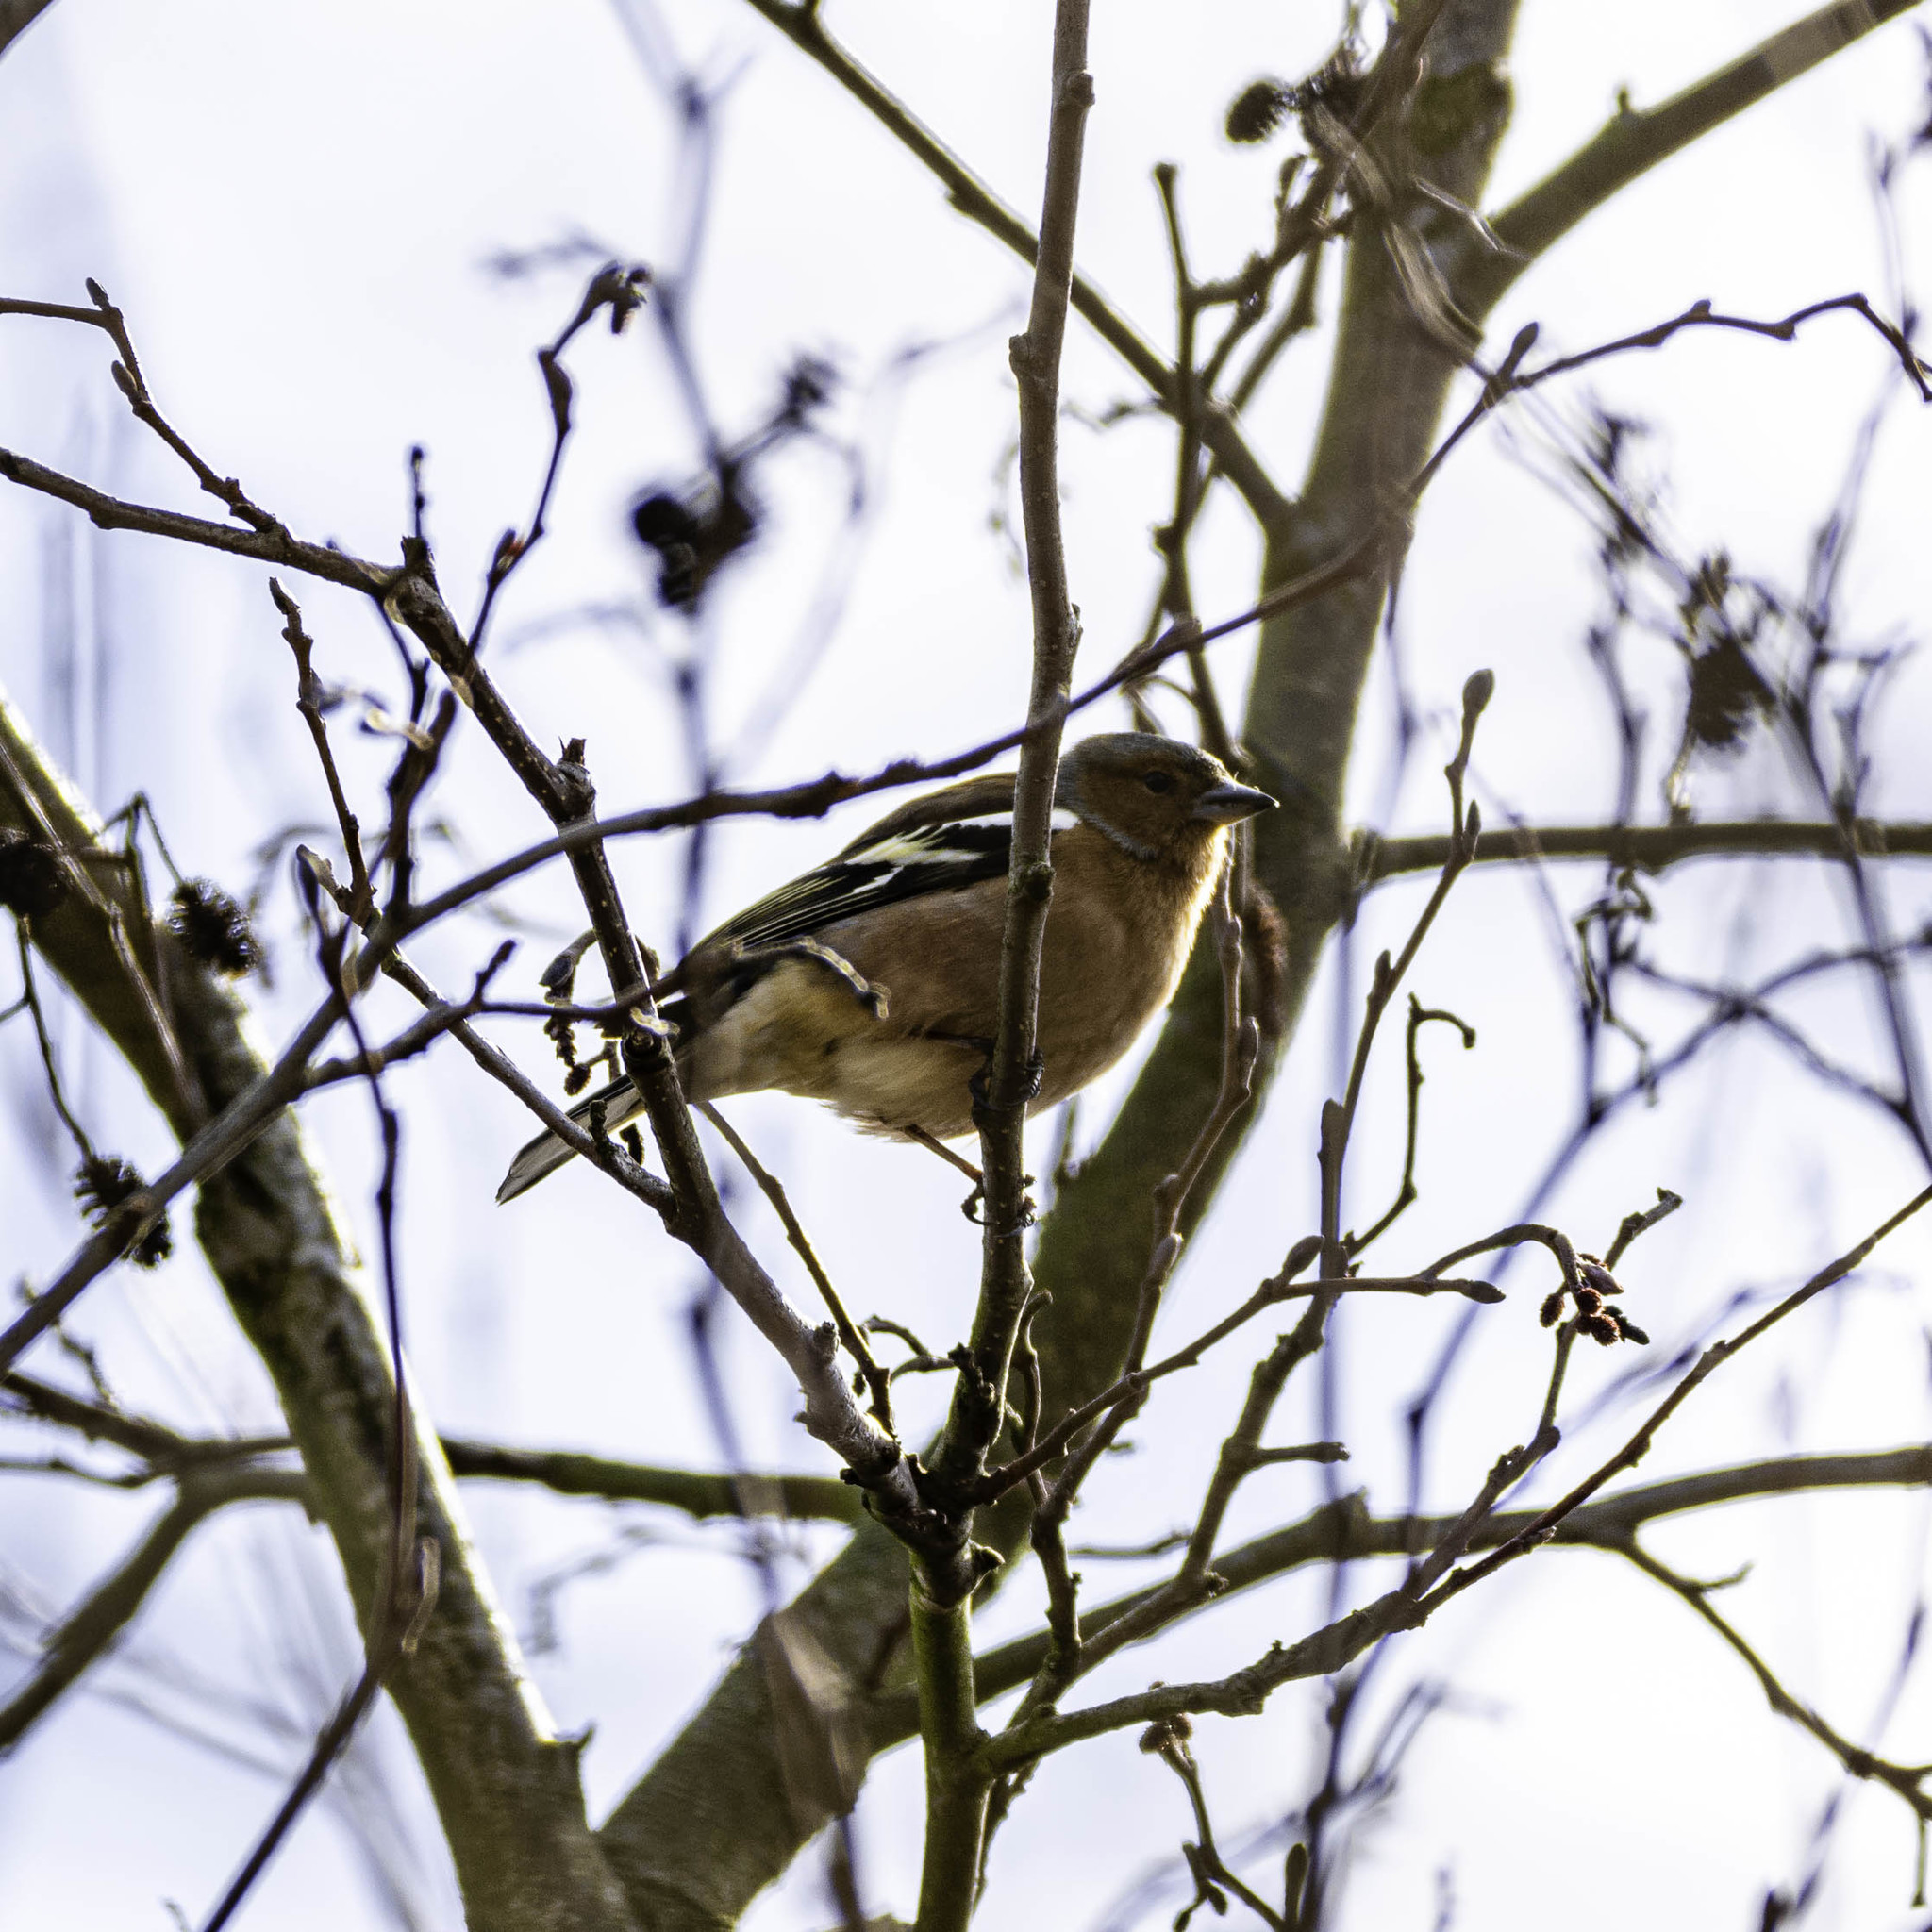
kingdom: Animalia
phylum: Chordata
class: Aves
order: Passeriformes
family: Fringillidae
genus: Fringilla
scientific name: Fringilla coelebs
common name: Common chaffinch
